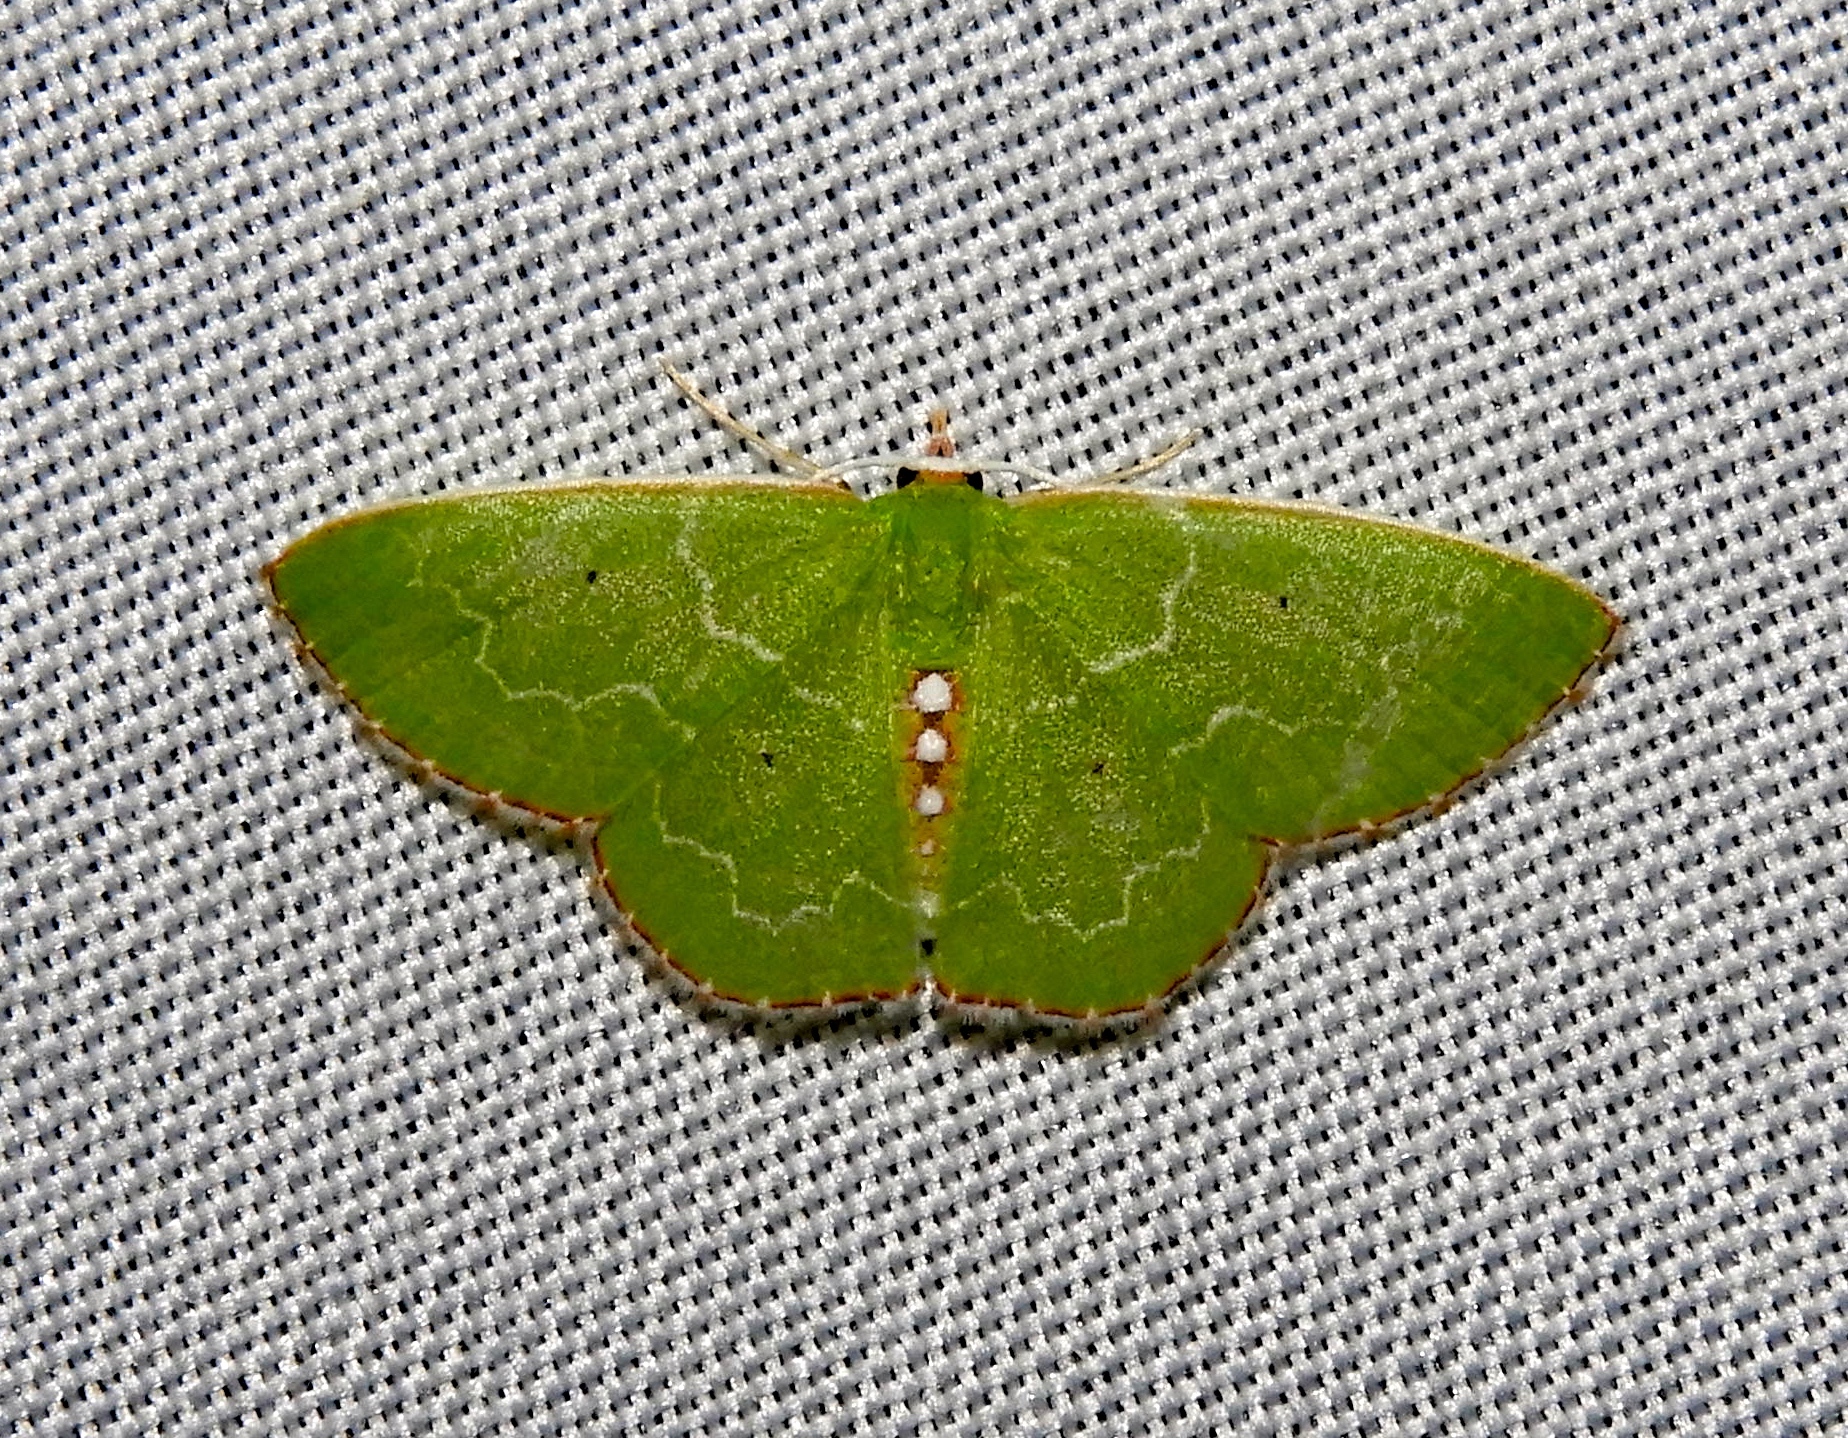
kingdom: Animalia
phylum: Arthropoda
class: Insecta
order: Lepidoptera
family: Geometridae
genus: Nemoria
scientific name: Nemoria lixaria
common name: Red-bordered emerald
